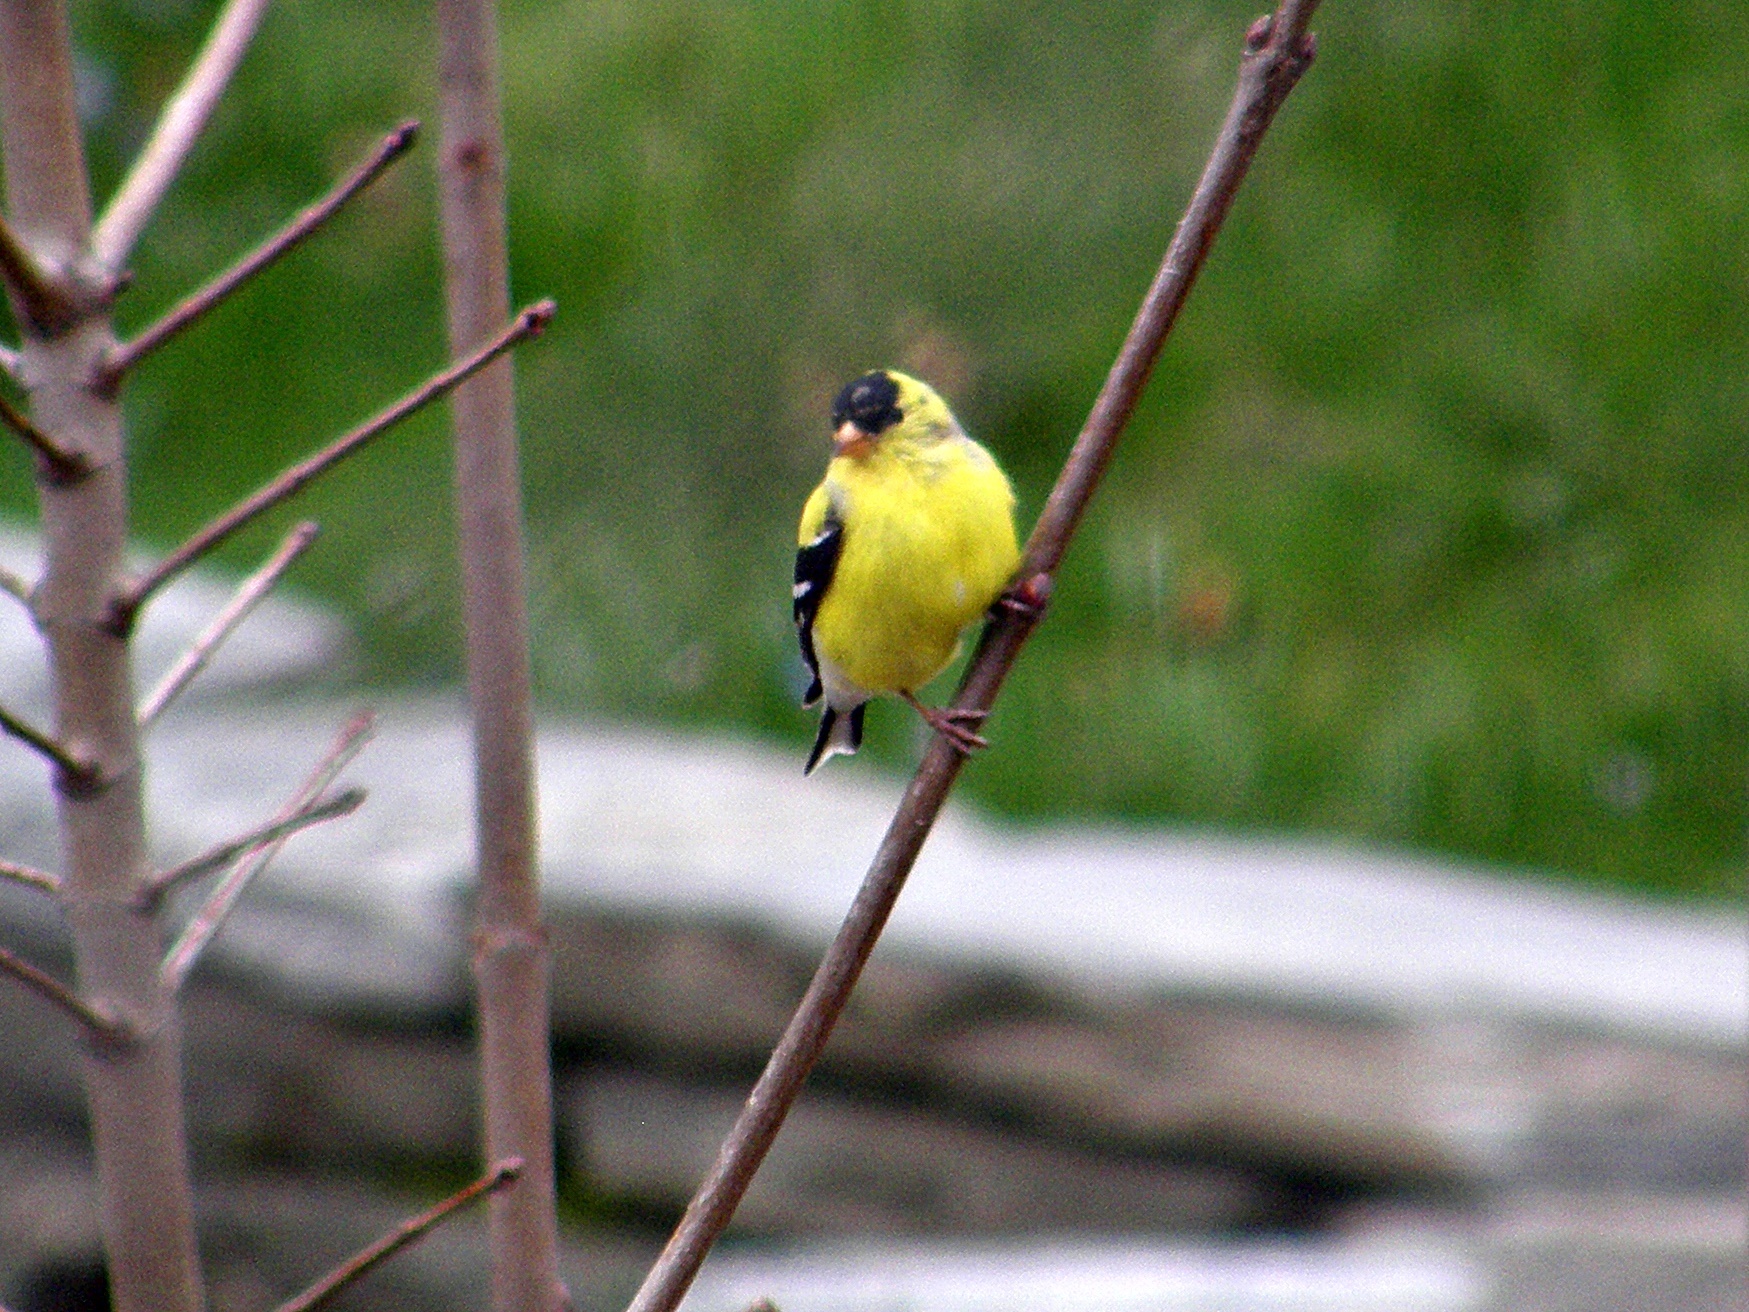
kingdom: Animalia
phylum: Chordata
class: Aves
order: Passeriformes
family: Fringillidae
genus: Spinus
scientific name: Spinus tristis
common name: American goldfinch
